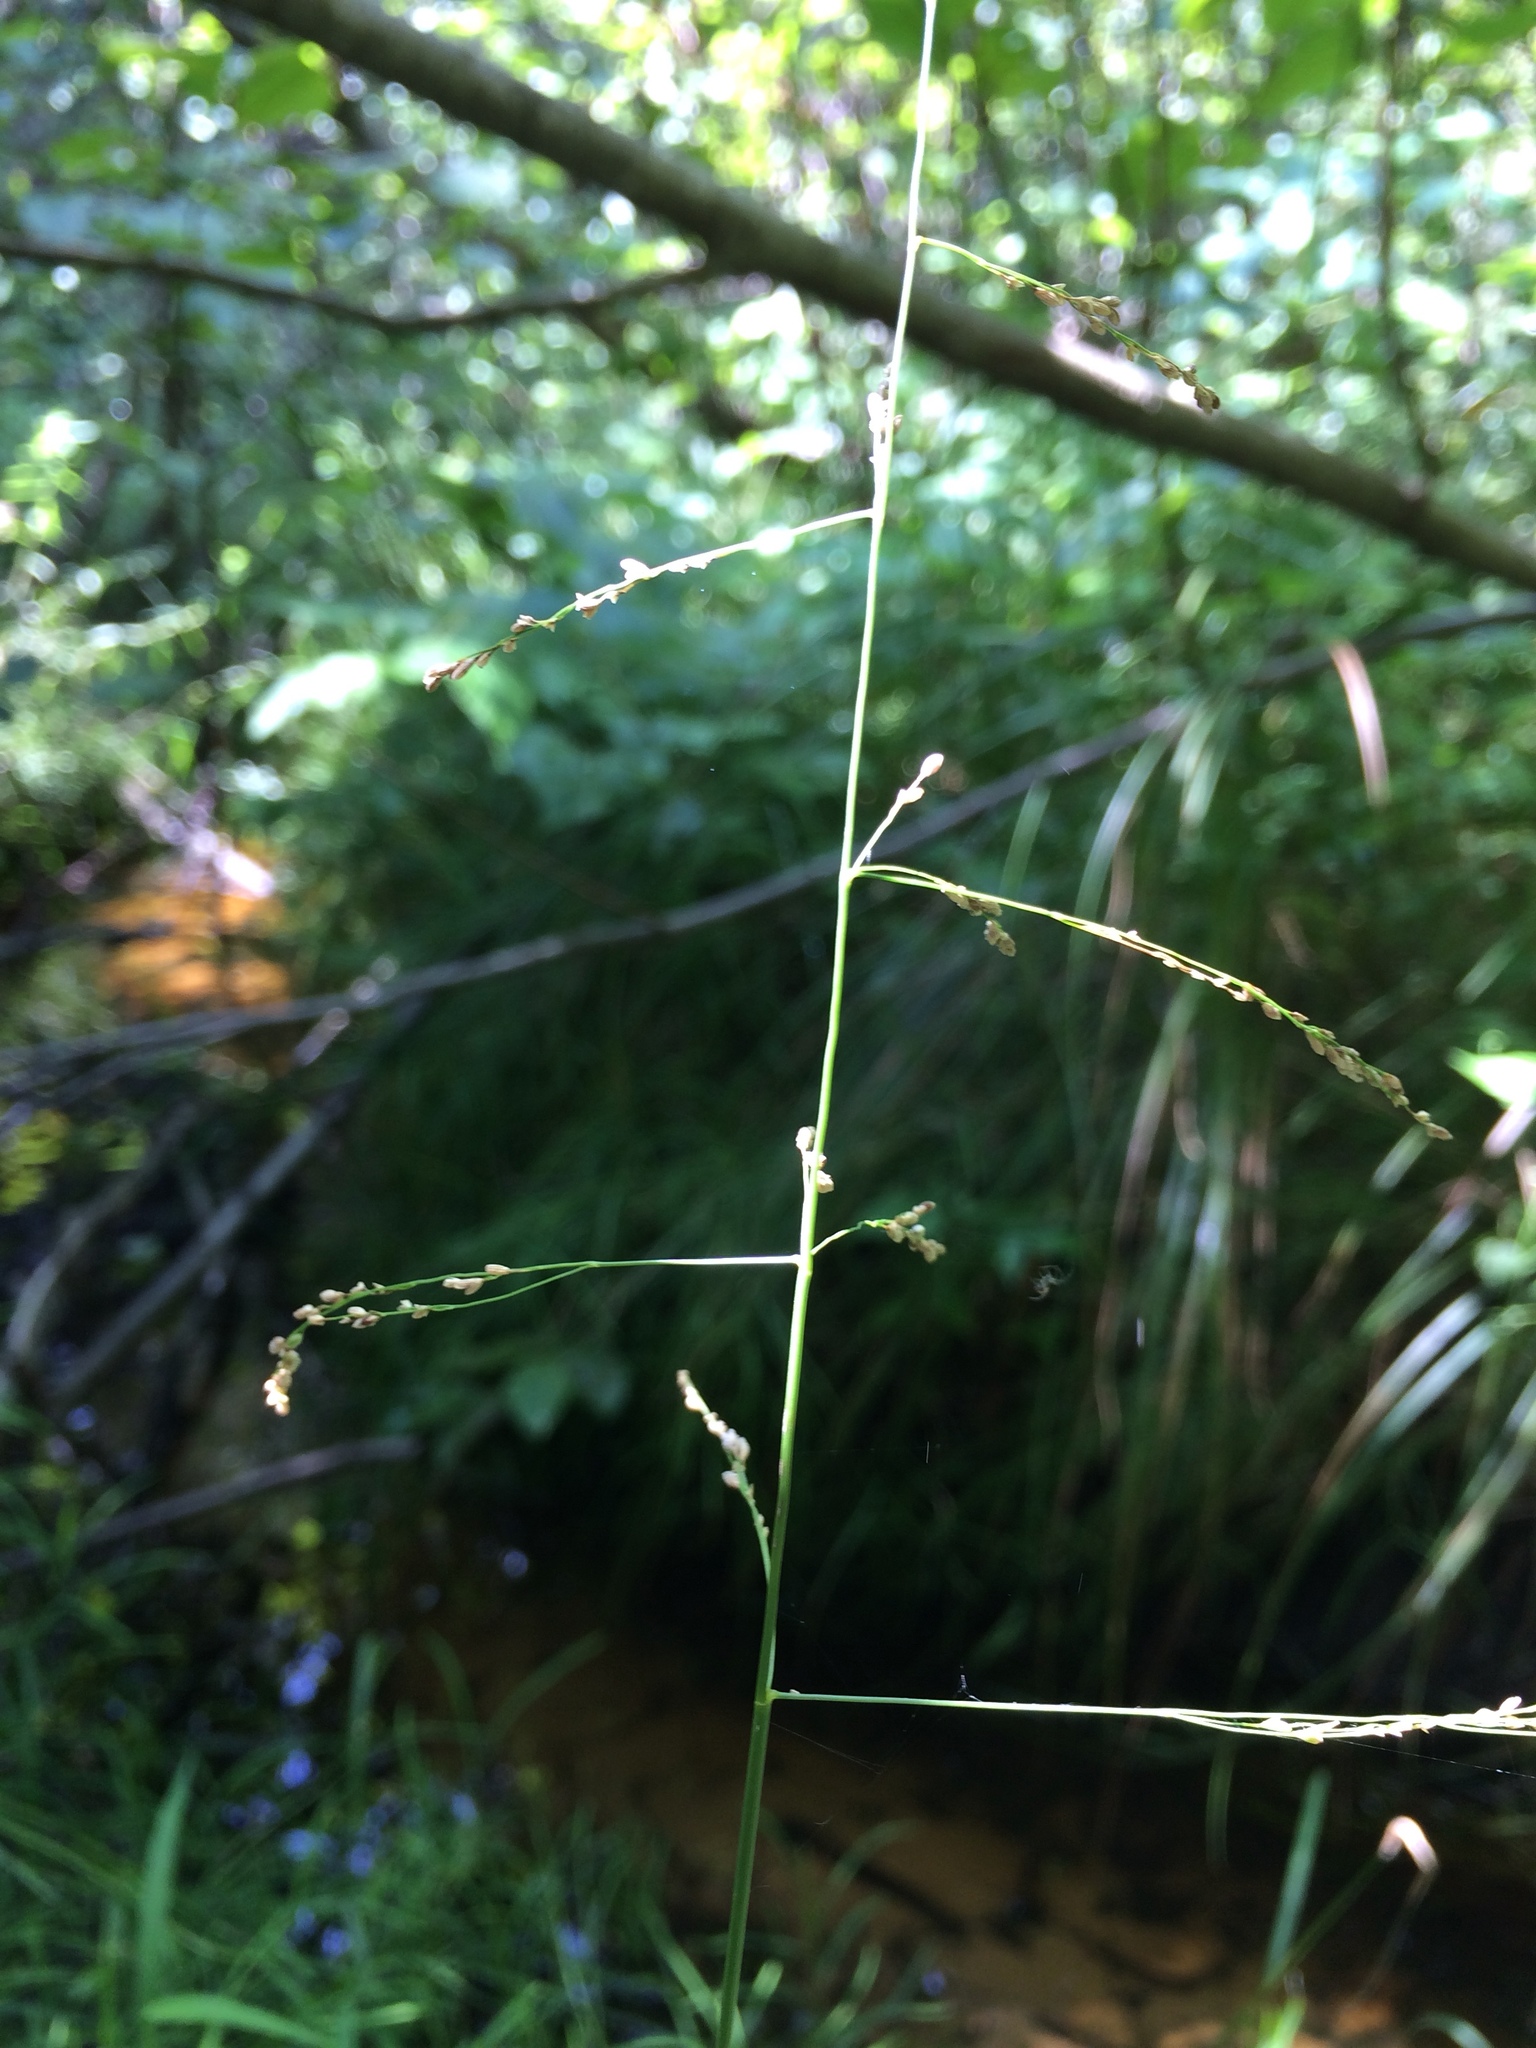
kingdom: Plantae
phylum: Tracheophyta
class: Liliopsida
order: Poales
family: Poaceae
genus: Glyceria
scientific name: Glyceria striata
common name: Fowl manna grass
